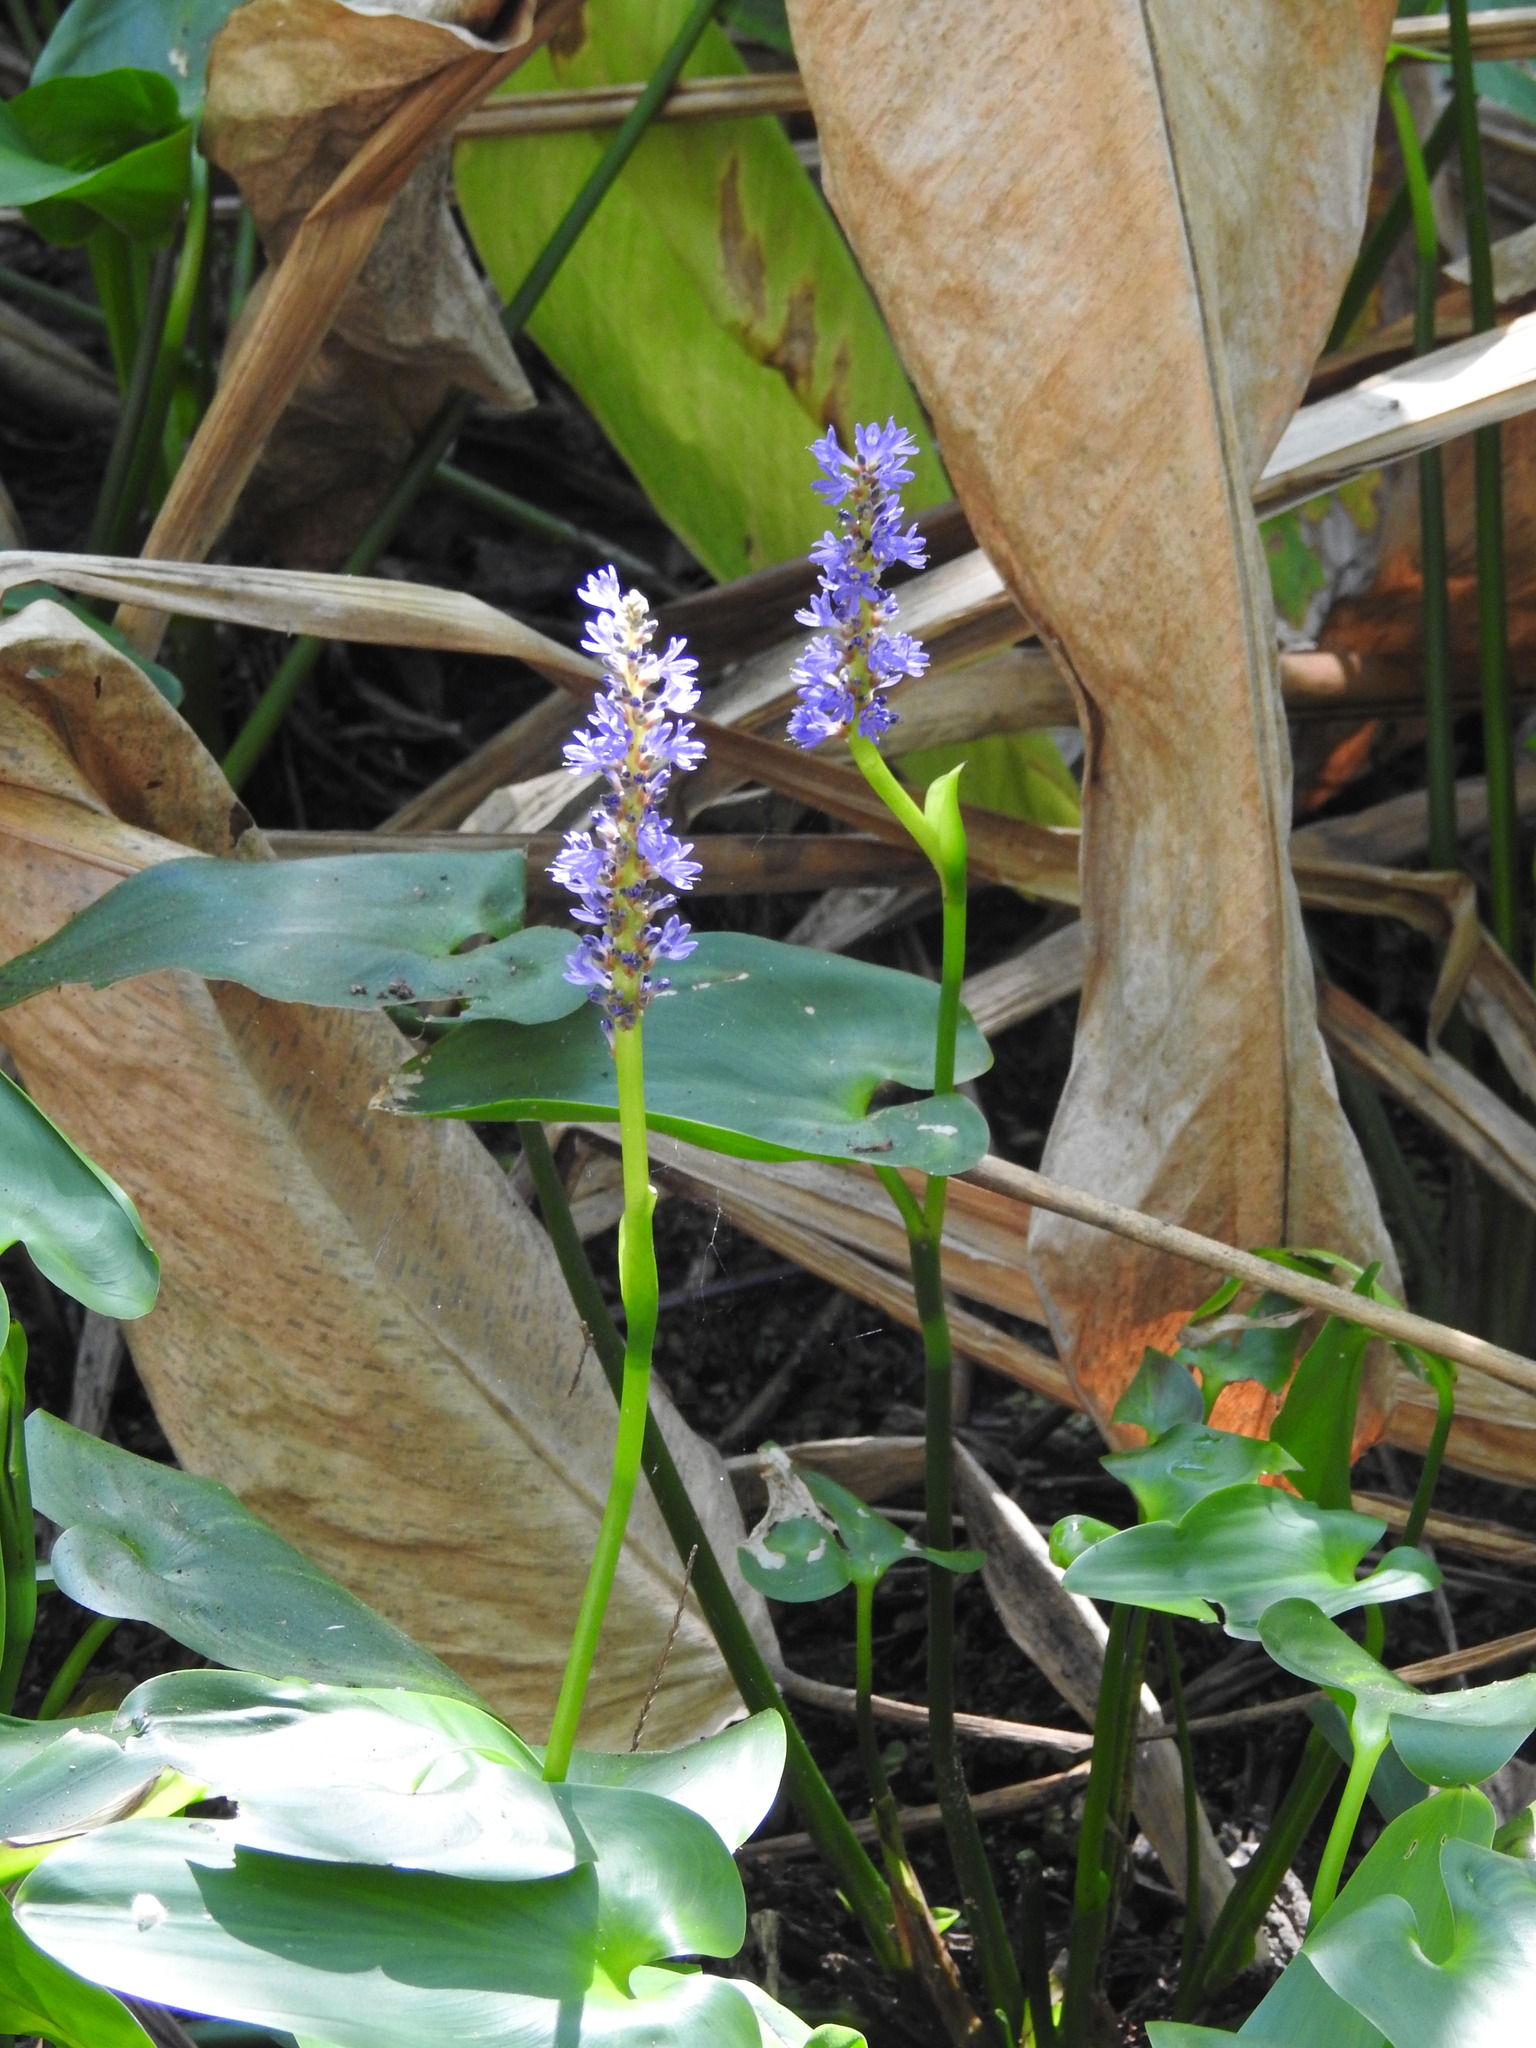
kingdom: Plantae
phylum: Tracheophyta
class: Liliopsida
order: Commelinales
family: Pontederiaceae
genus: Pontederia
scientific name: Pontederia cordata
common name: Pickerelweed
